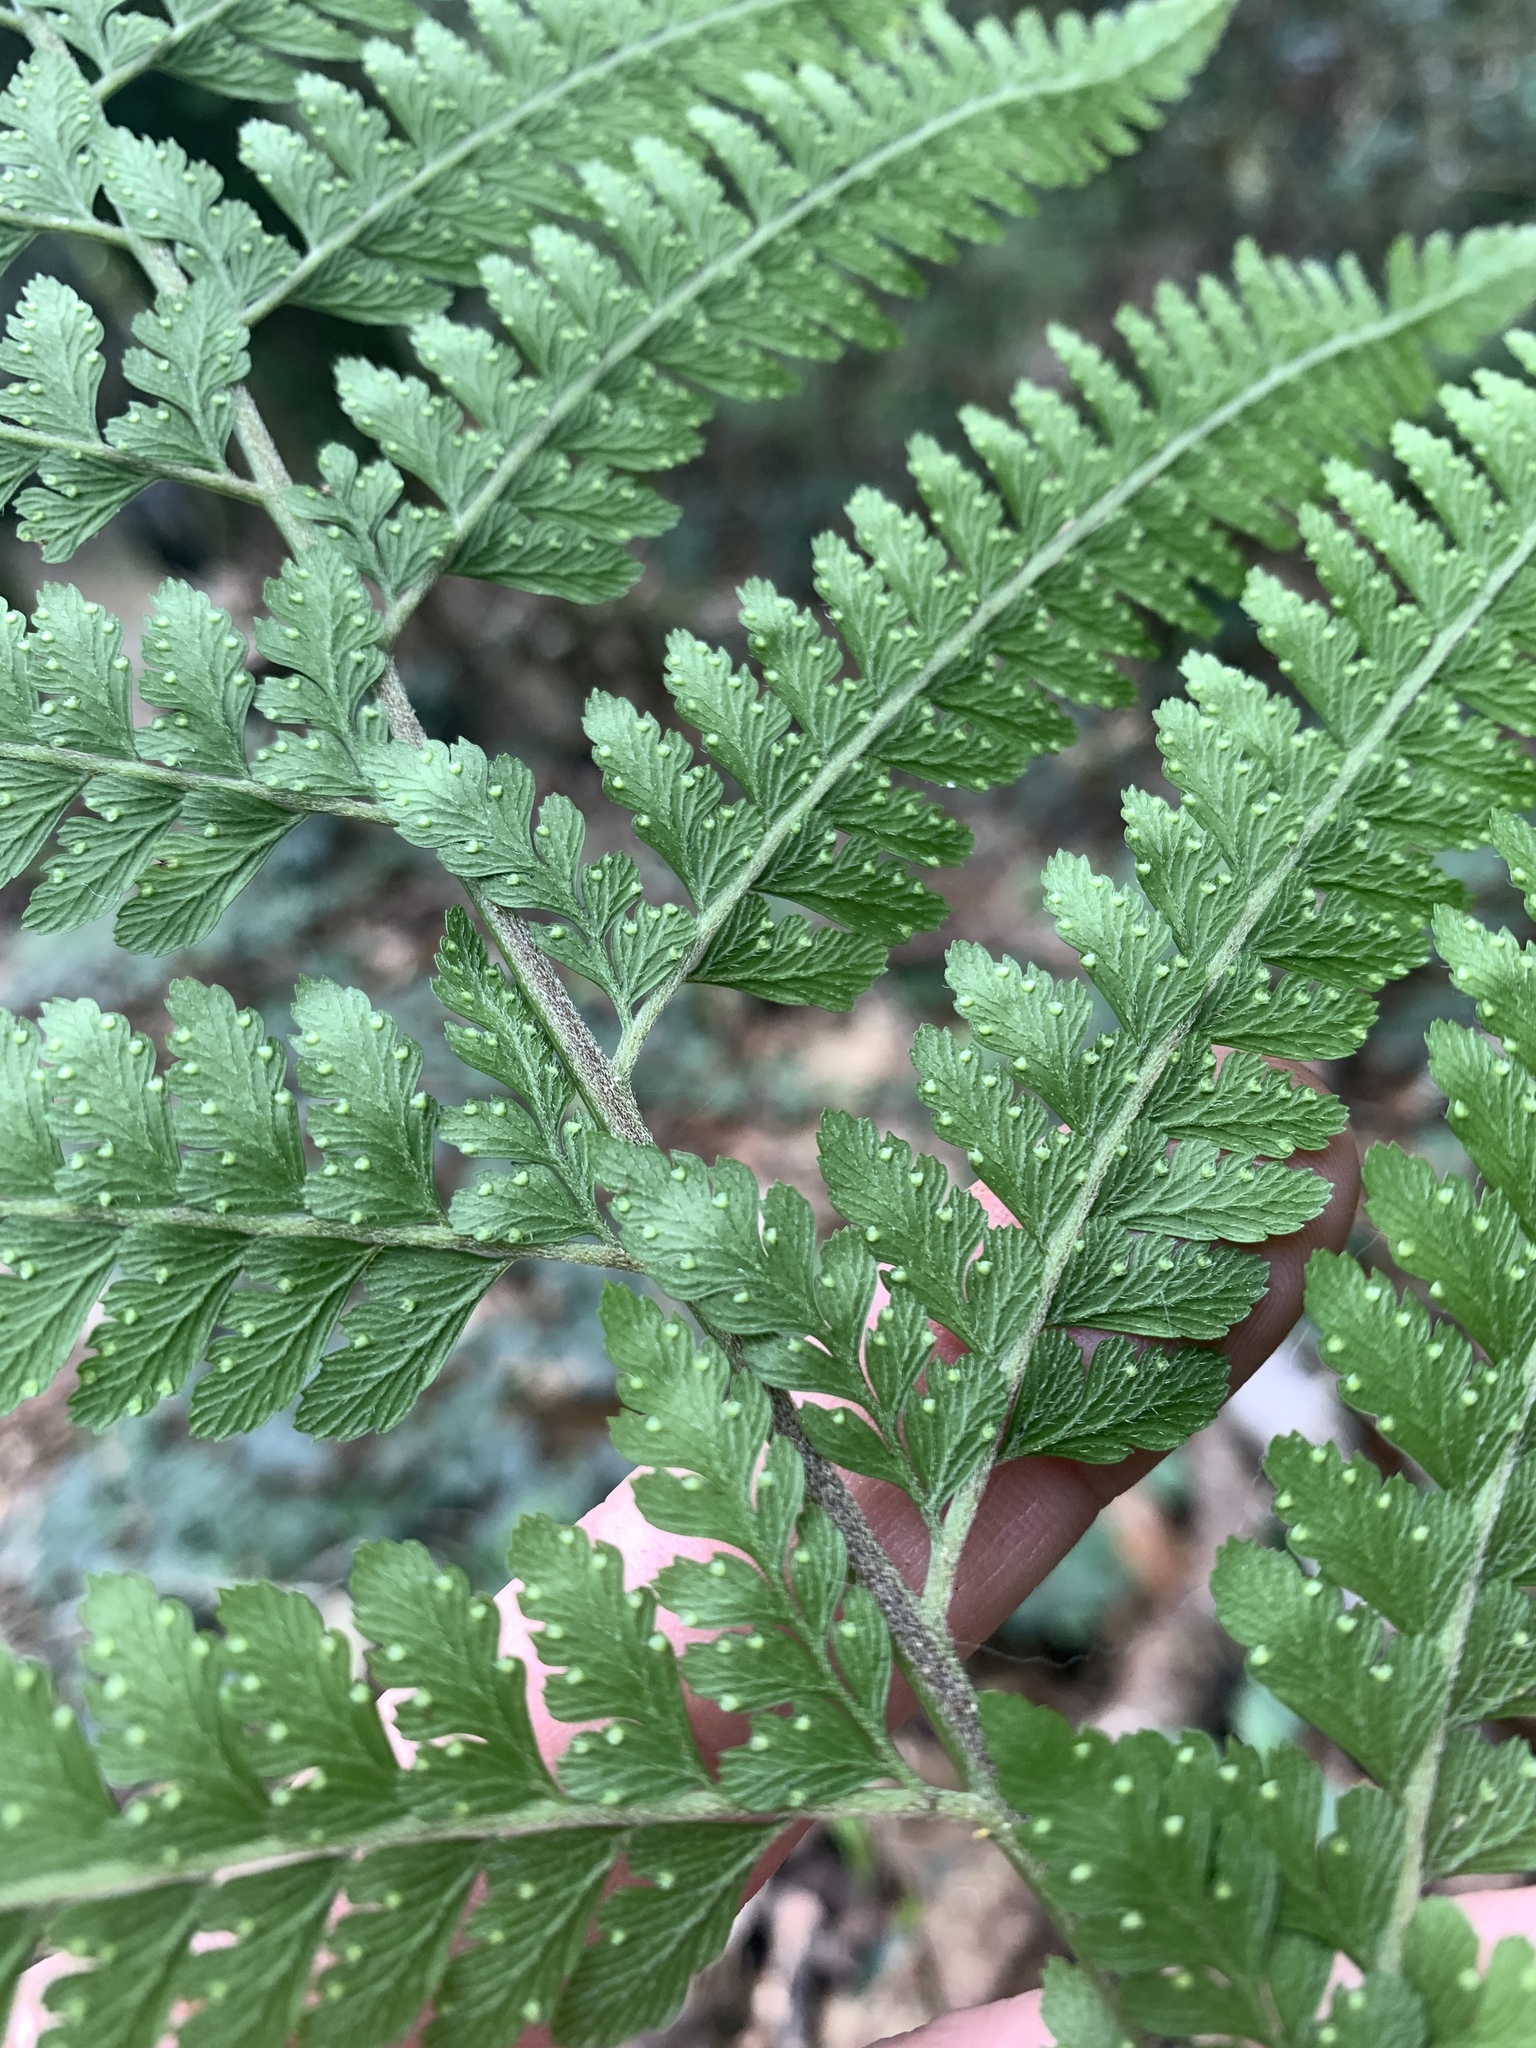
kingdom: Plantae
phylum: Tracheophyta
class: Polypodiopsida
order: Polypodiales
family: Dennstaedtiaceae
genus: Microlepia
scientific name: Microlepia strigosa
